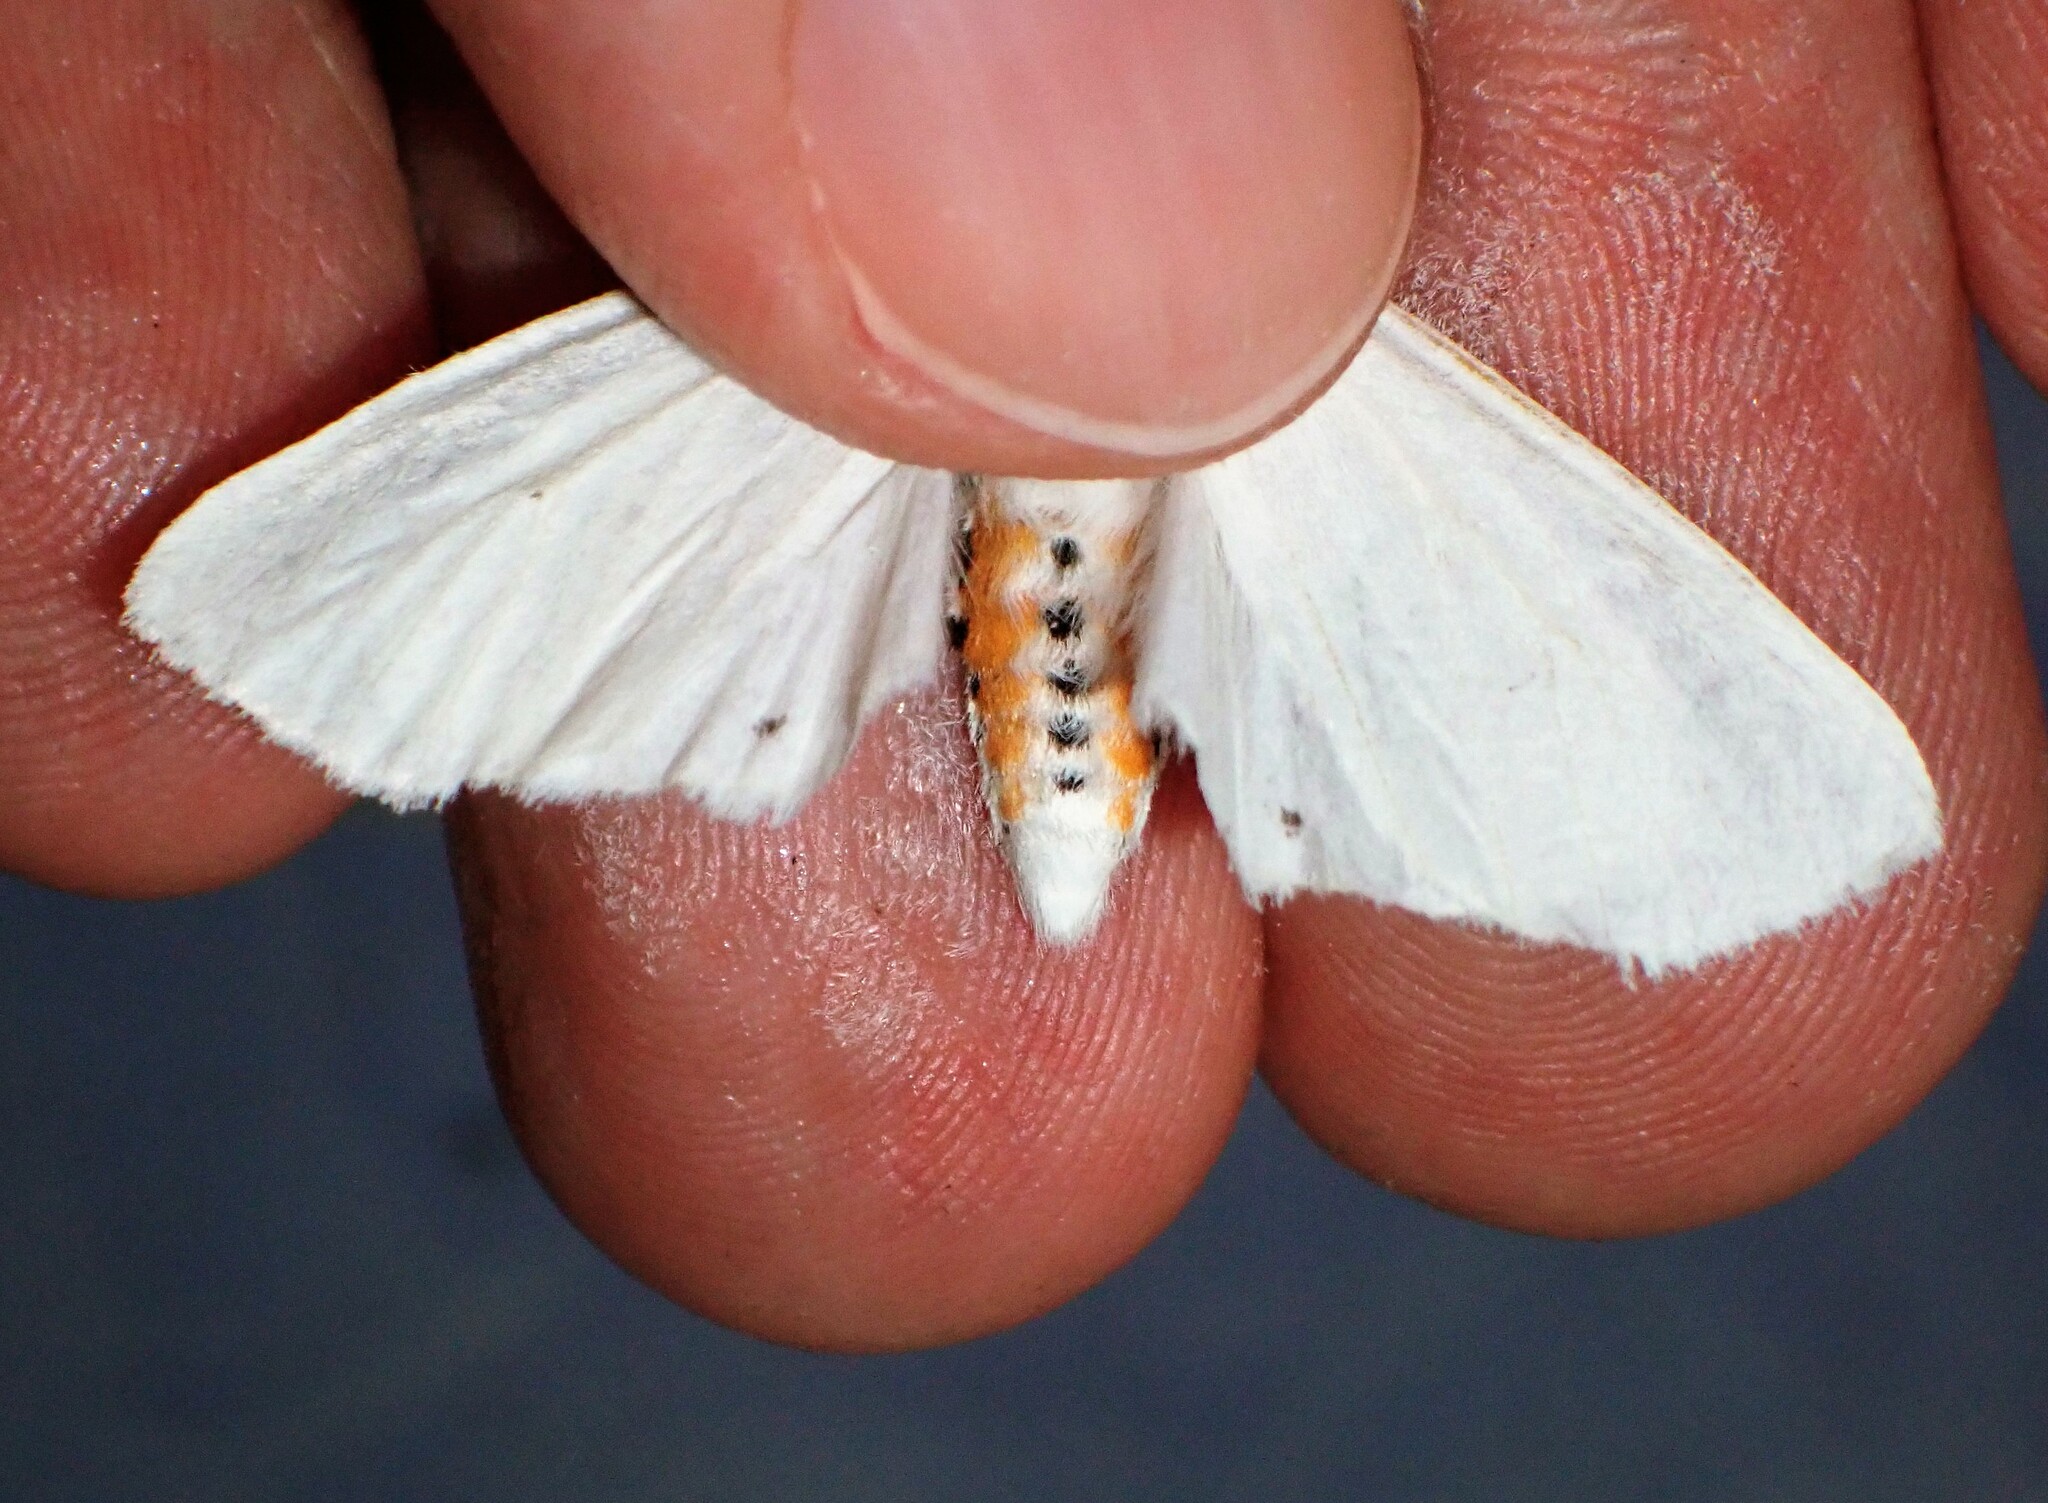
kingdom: Animalia
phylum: Arthropoda
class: Insecta
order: Lepidoptera
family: Erebidae
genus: Spilosoma
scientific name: Spilosoma virginica
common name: Virginia tiger moth
